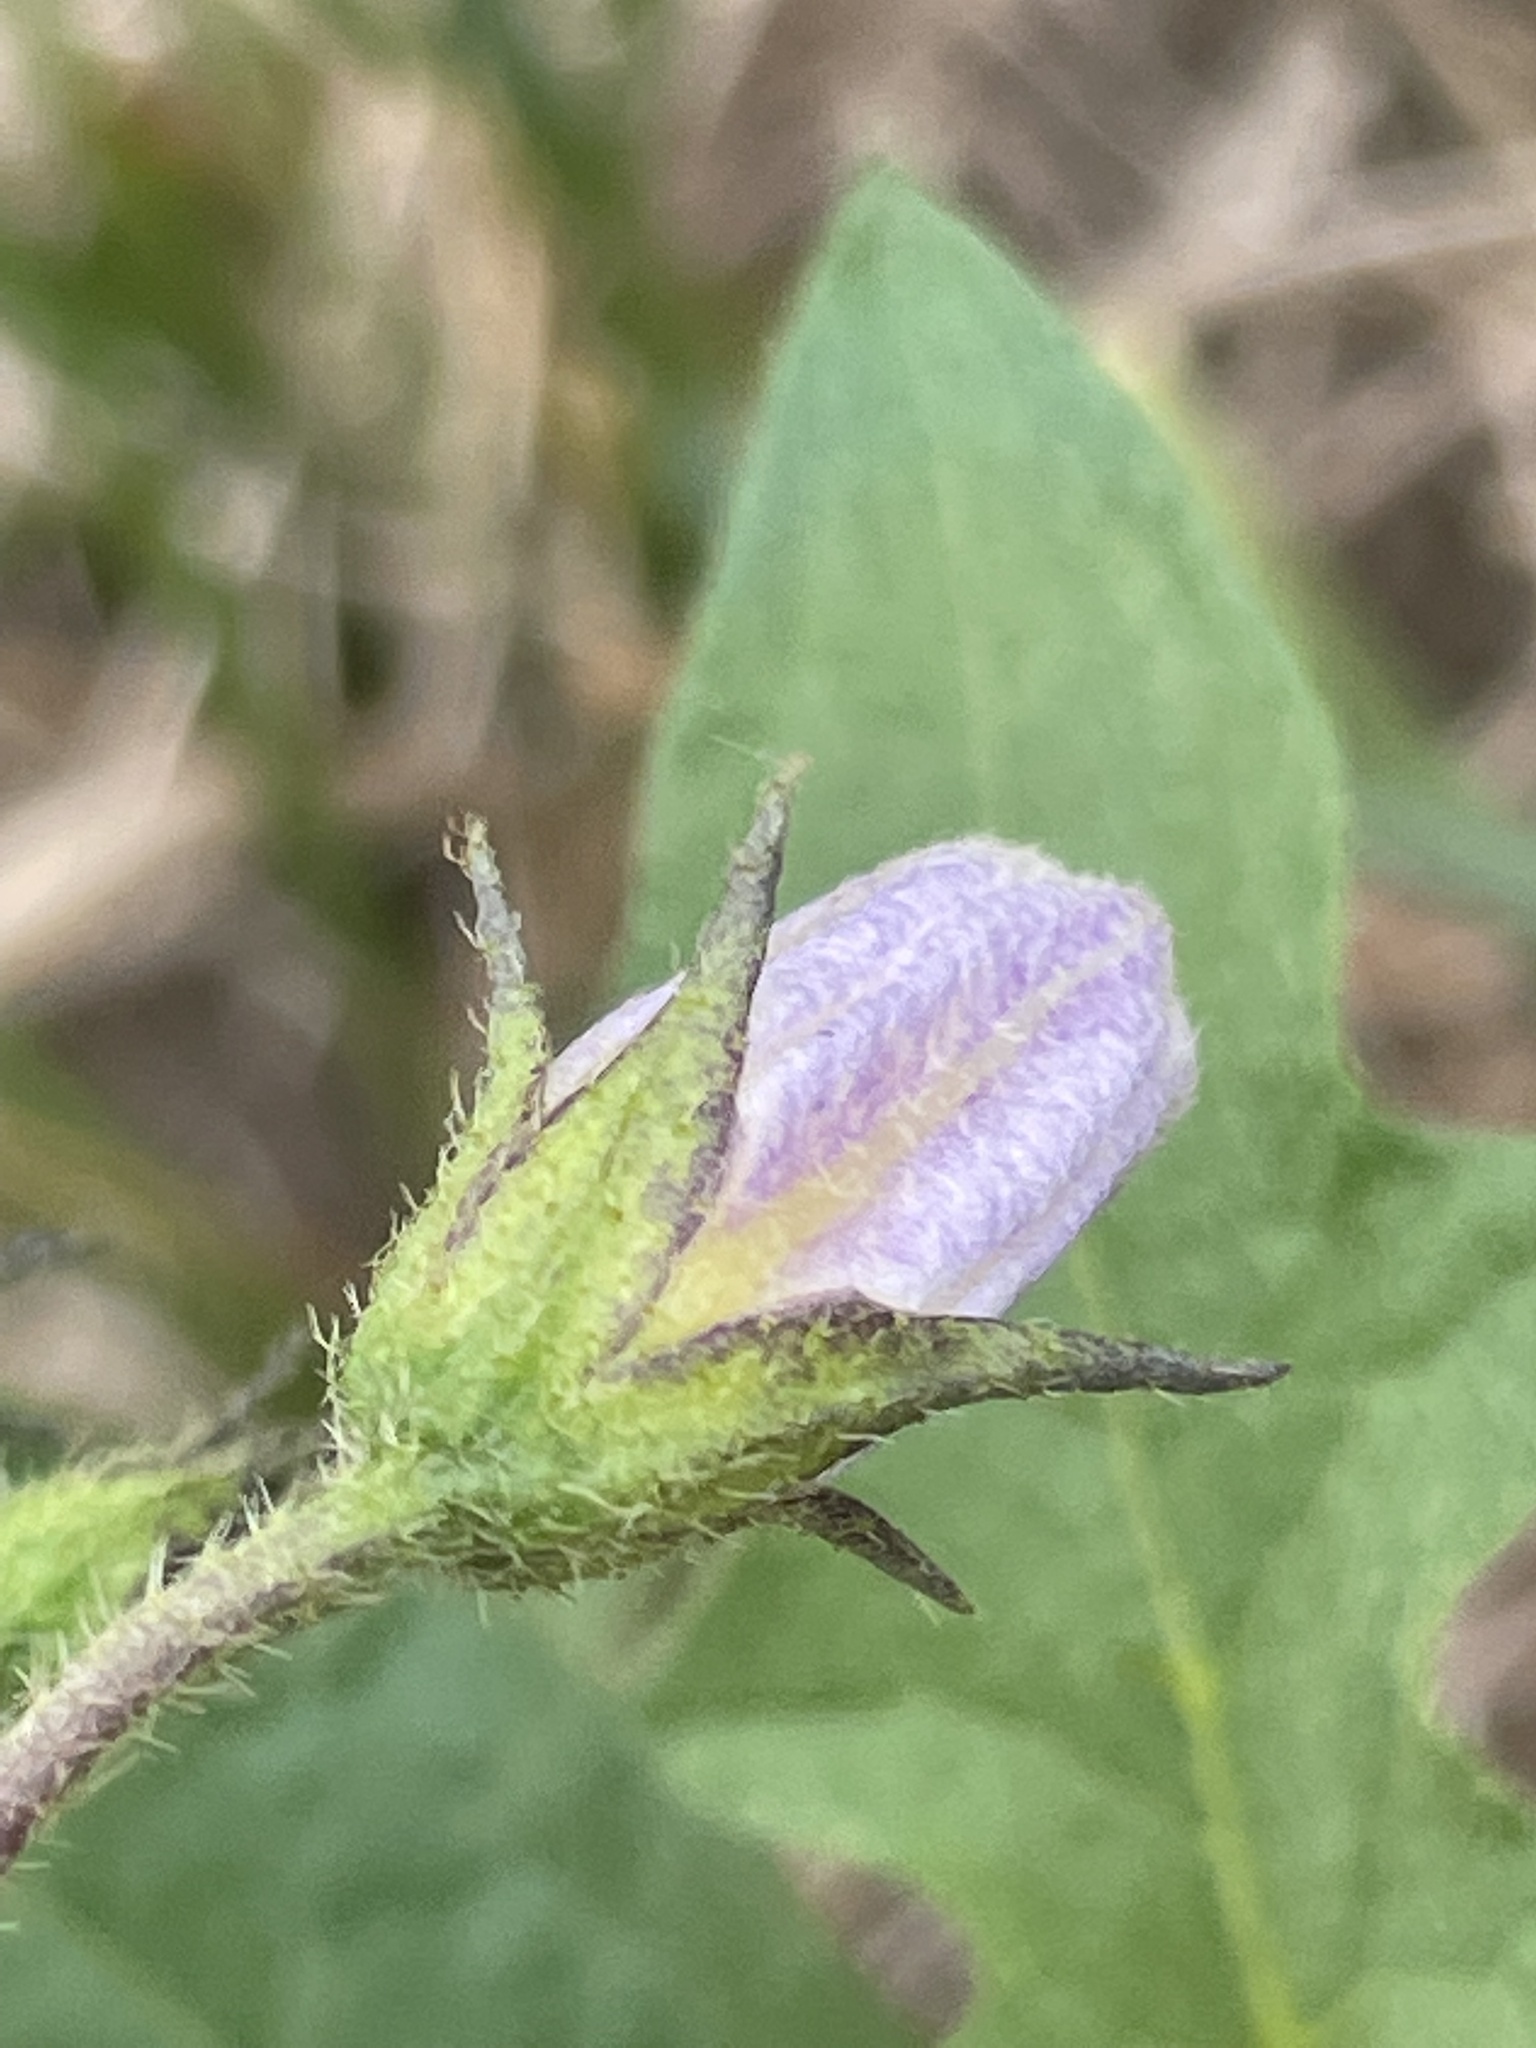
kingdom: Plantae
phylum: Tracheophyta
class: Magnoliopsida
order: Solanales
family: Solanaceae
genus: Solanum
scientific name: Solanum carolinense
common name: Horse-nettle
